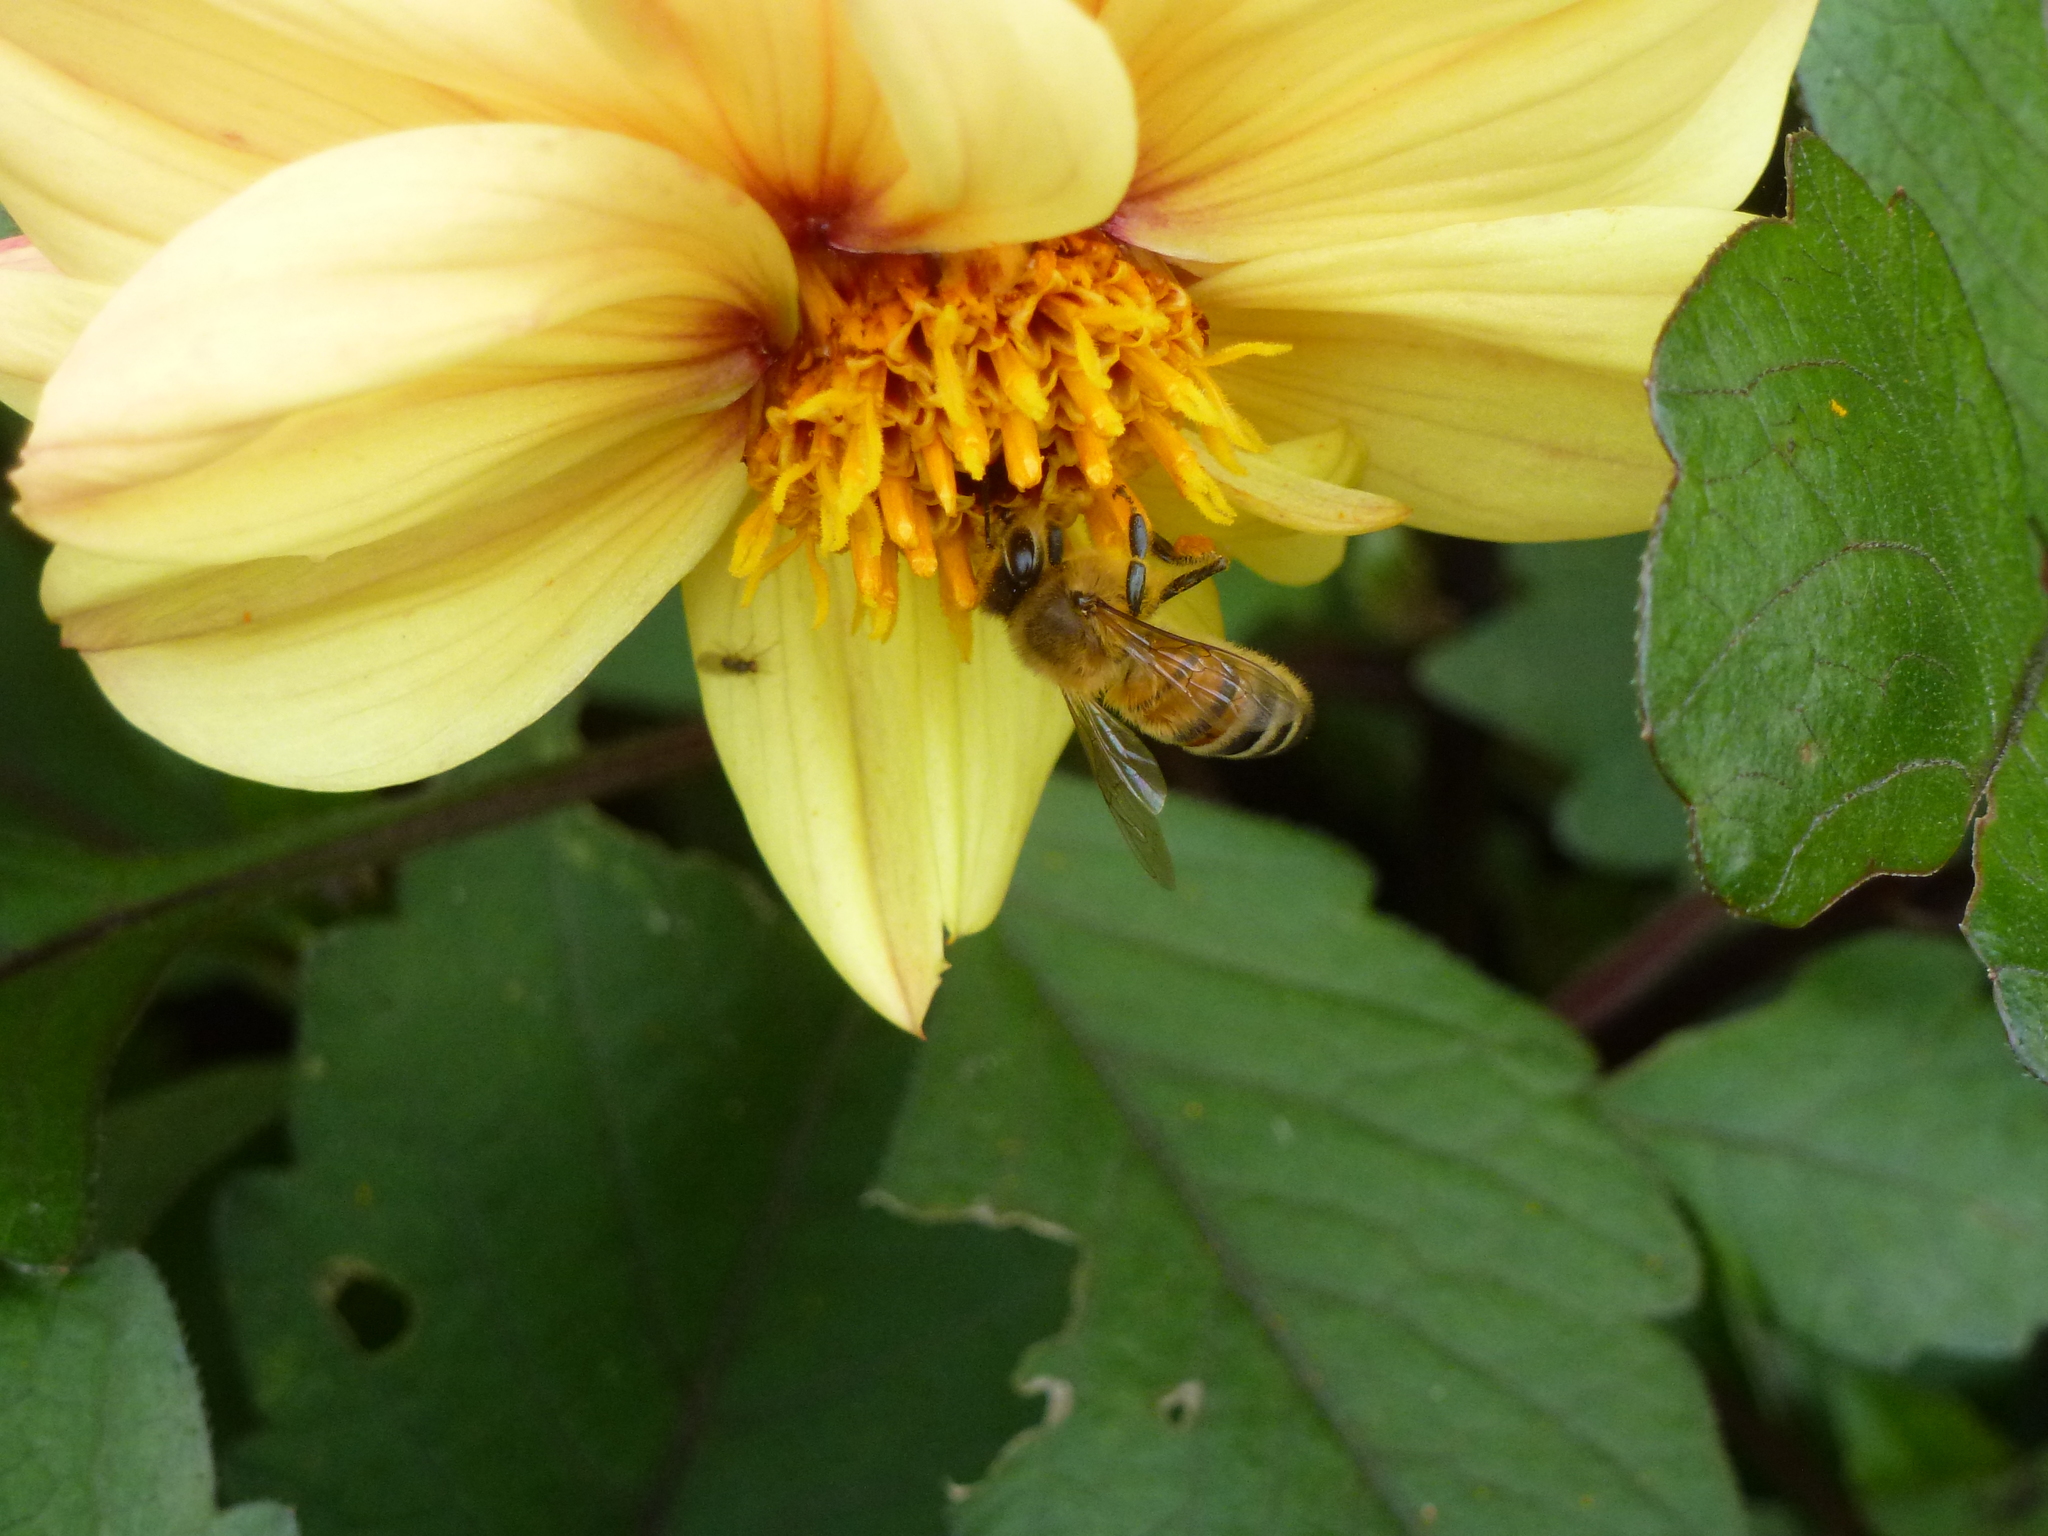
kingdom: Animalia
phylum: Arthropoda
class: Insecta
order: Hymenoptera
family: Apidae
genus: Apis
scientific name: Apis mellifera
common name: Honey bee
